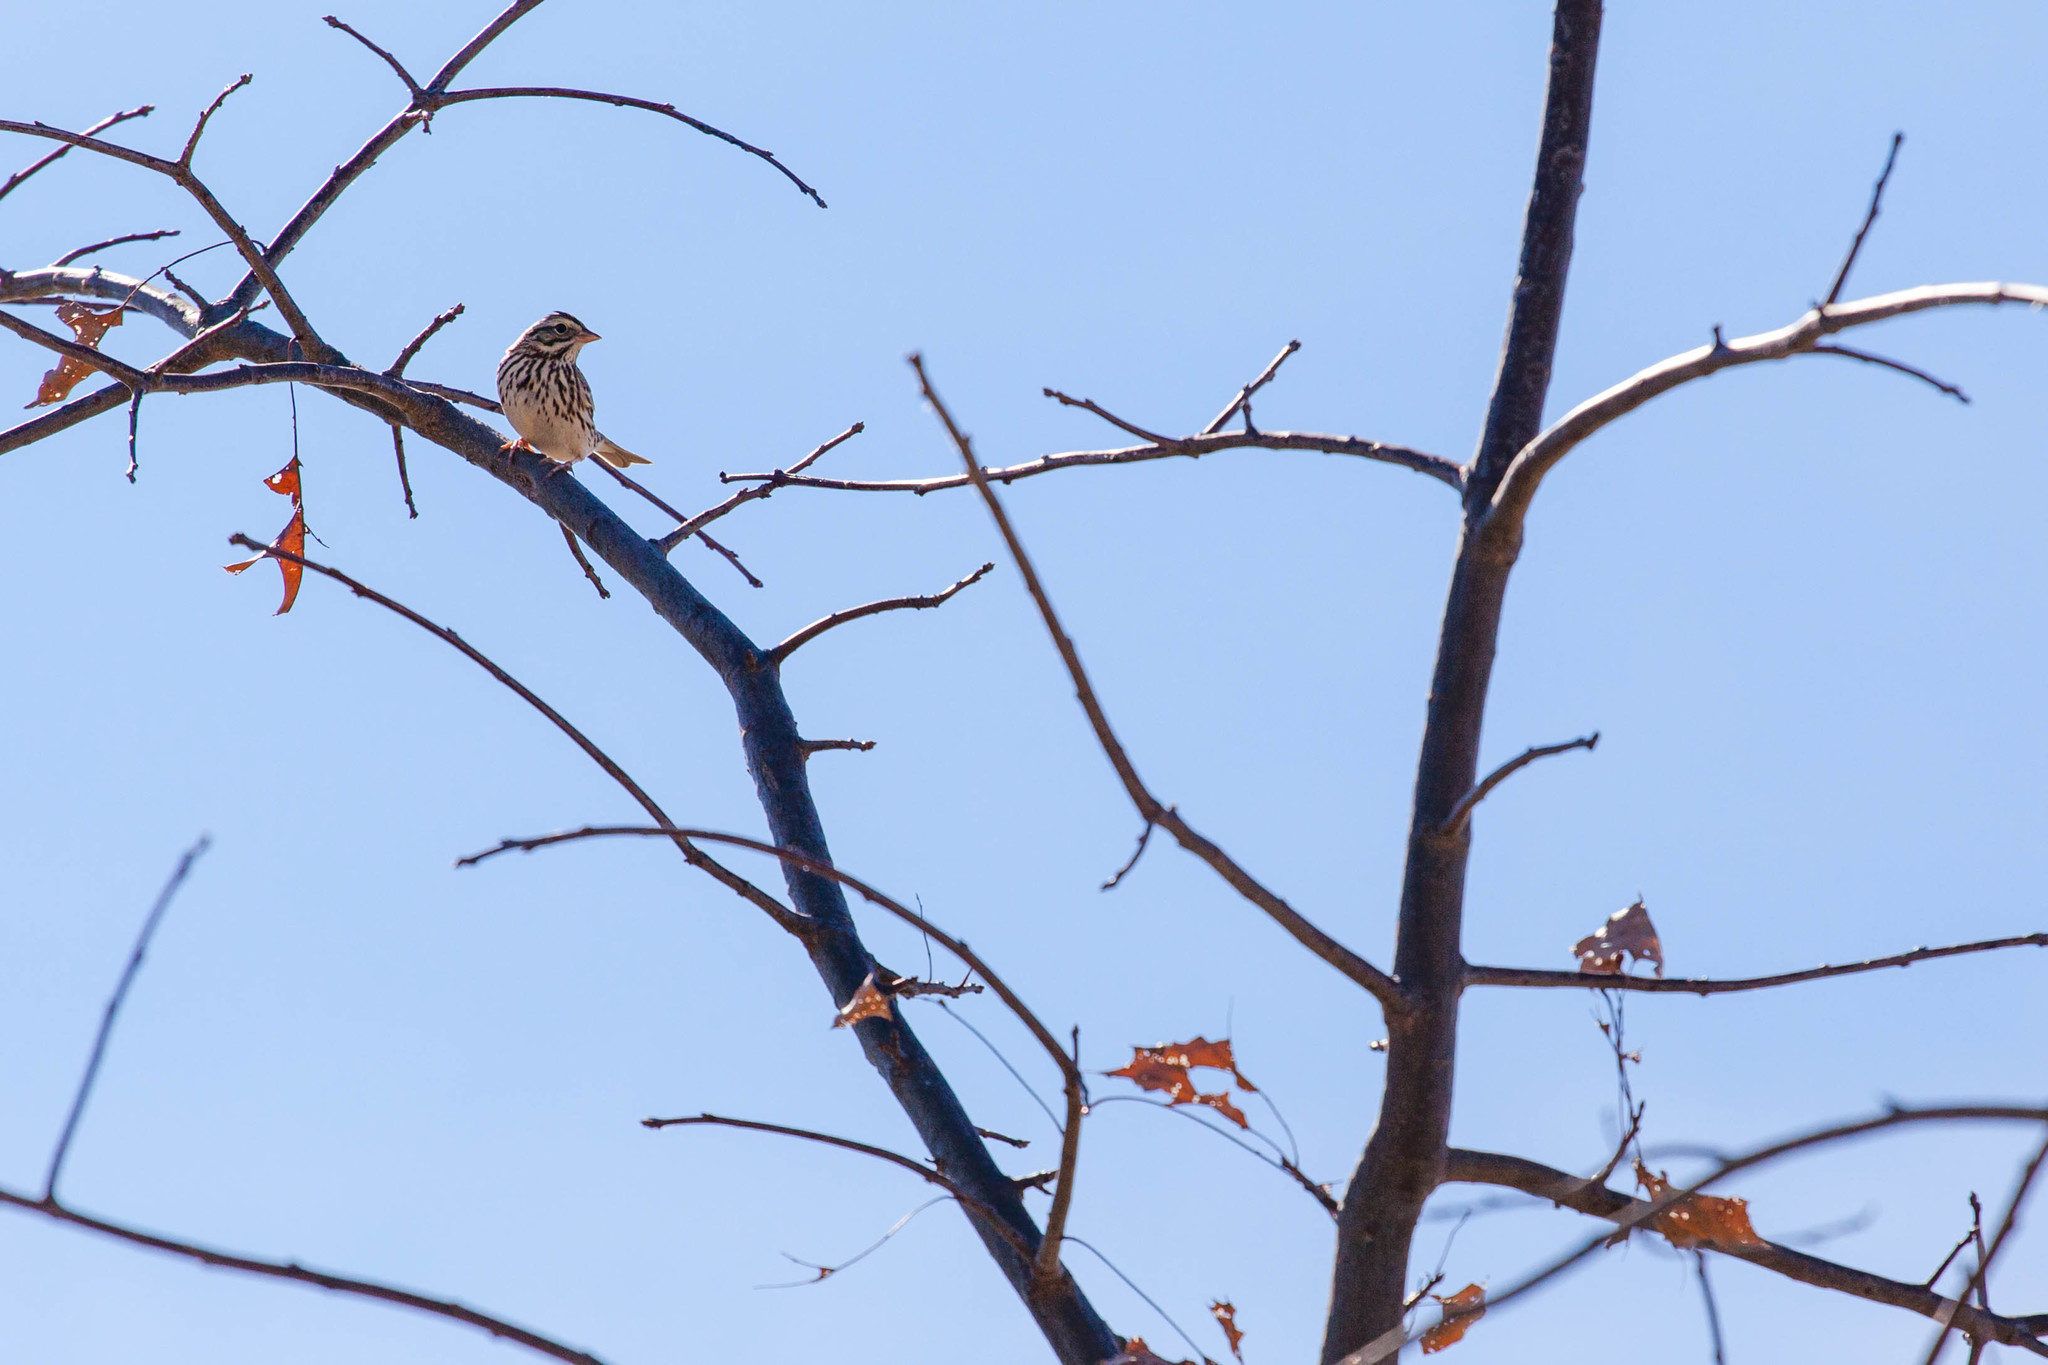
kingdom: Animalia
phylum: Chordata
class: Aves
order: Passeriformes
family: Passerellidae
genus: Passerculus
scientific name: Passerculus sandwichensis
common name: Savannah sparrow
